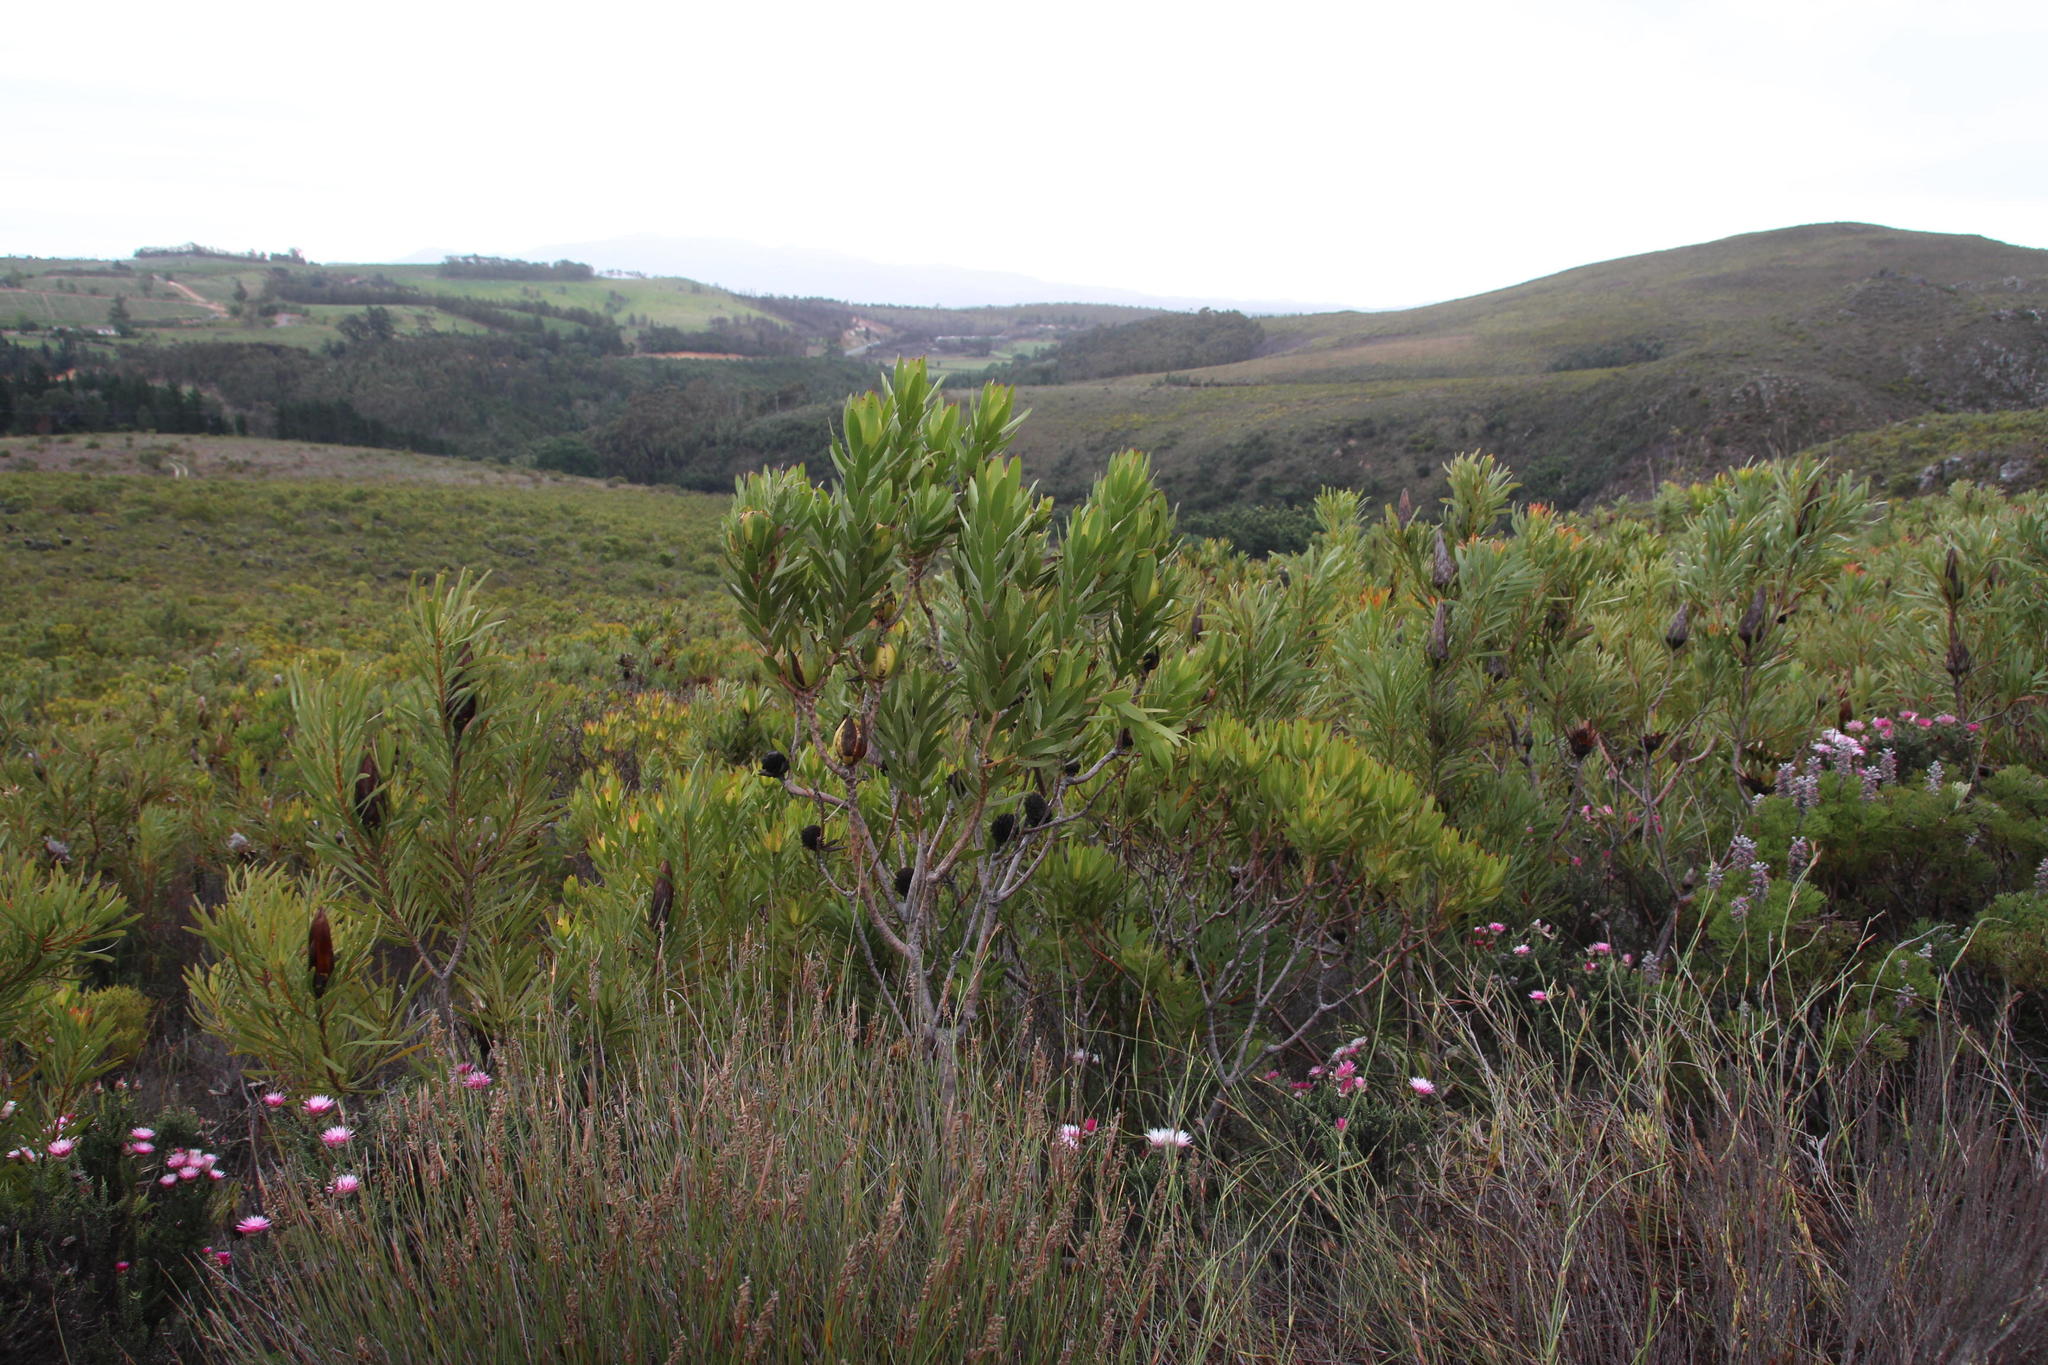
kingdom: Plantae
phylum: Tracheophyta
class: Magnoliopsida
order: Proteales
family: Proteaceae
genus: Leucadendron
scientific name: Leucadendron laureolum
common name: Golden sunshinebush
